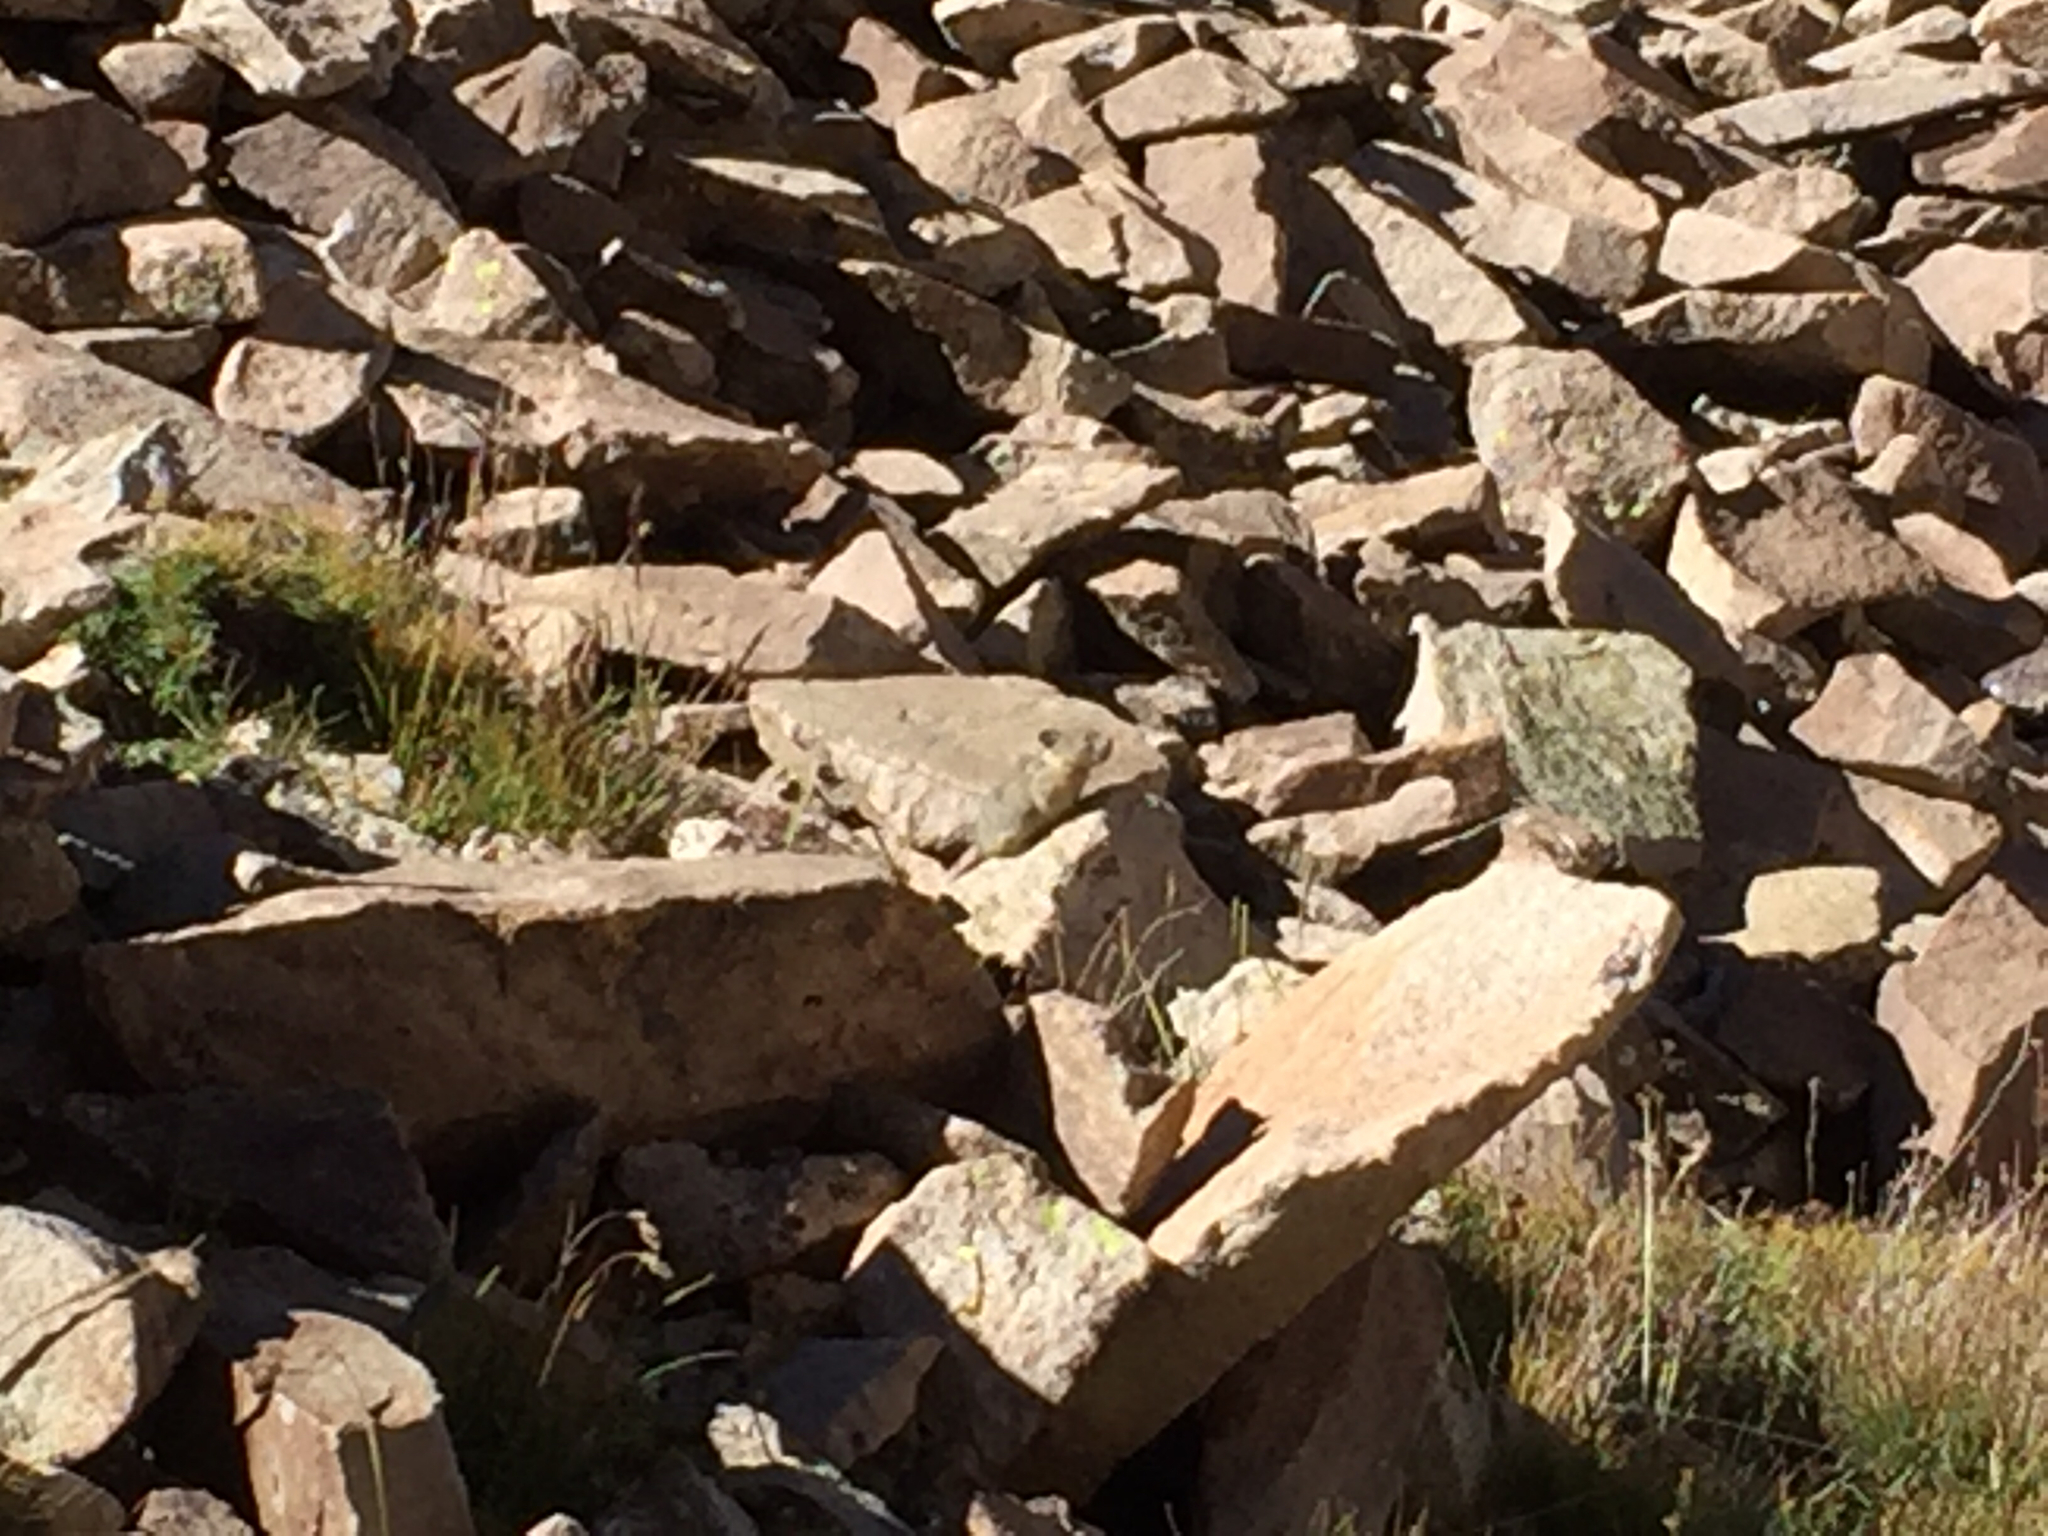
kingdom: Animalia
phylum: Chordata
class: Mammalia
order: Lagomorpha
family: Ochotonidae
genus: Ochotona
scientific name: Ochotona princeps
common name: American pika
